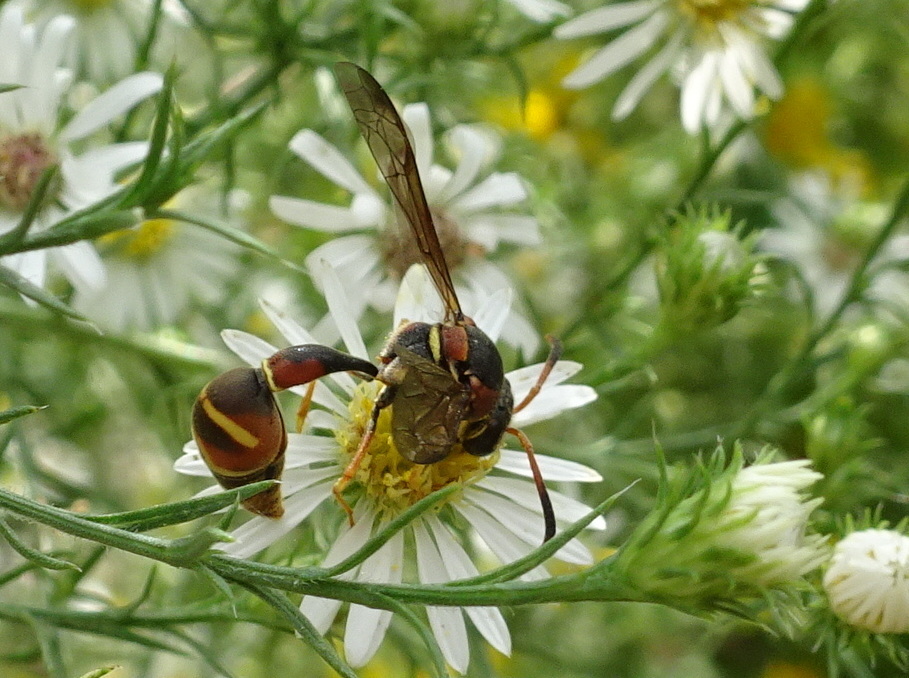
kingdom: Animalia
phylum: Arthropoda
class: Insecta
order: Hymenoptera
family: Vespidae
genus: Eumenes
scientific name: Eumenes smithii
